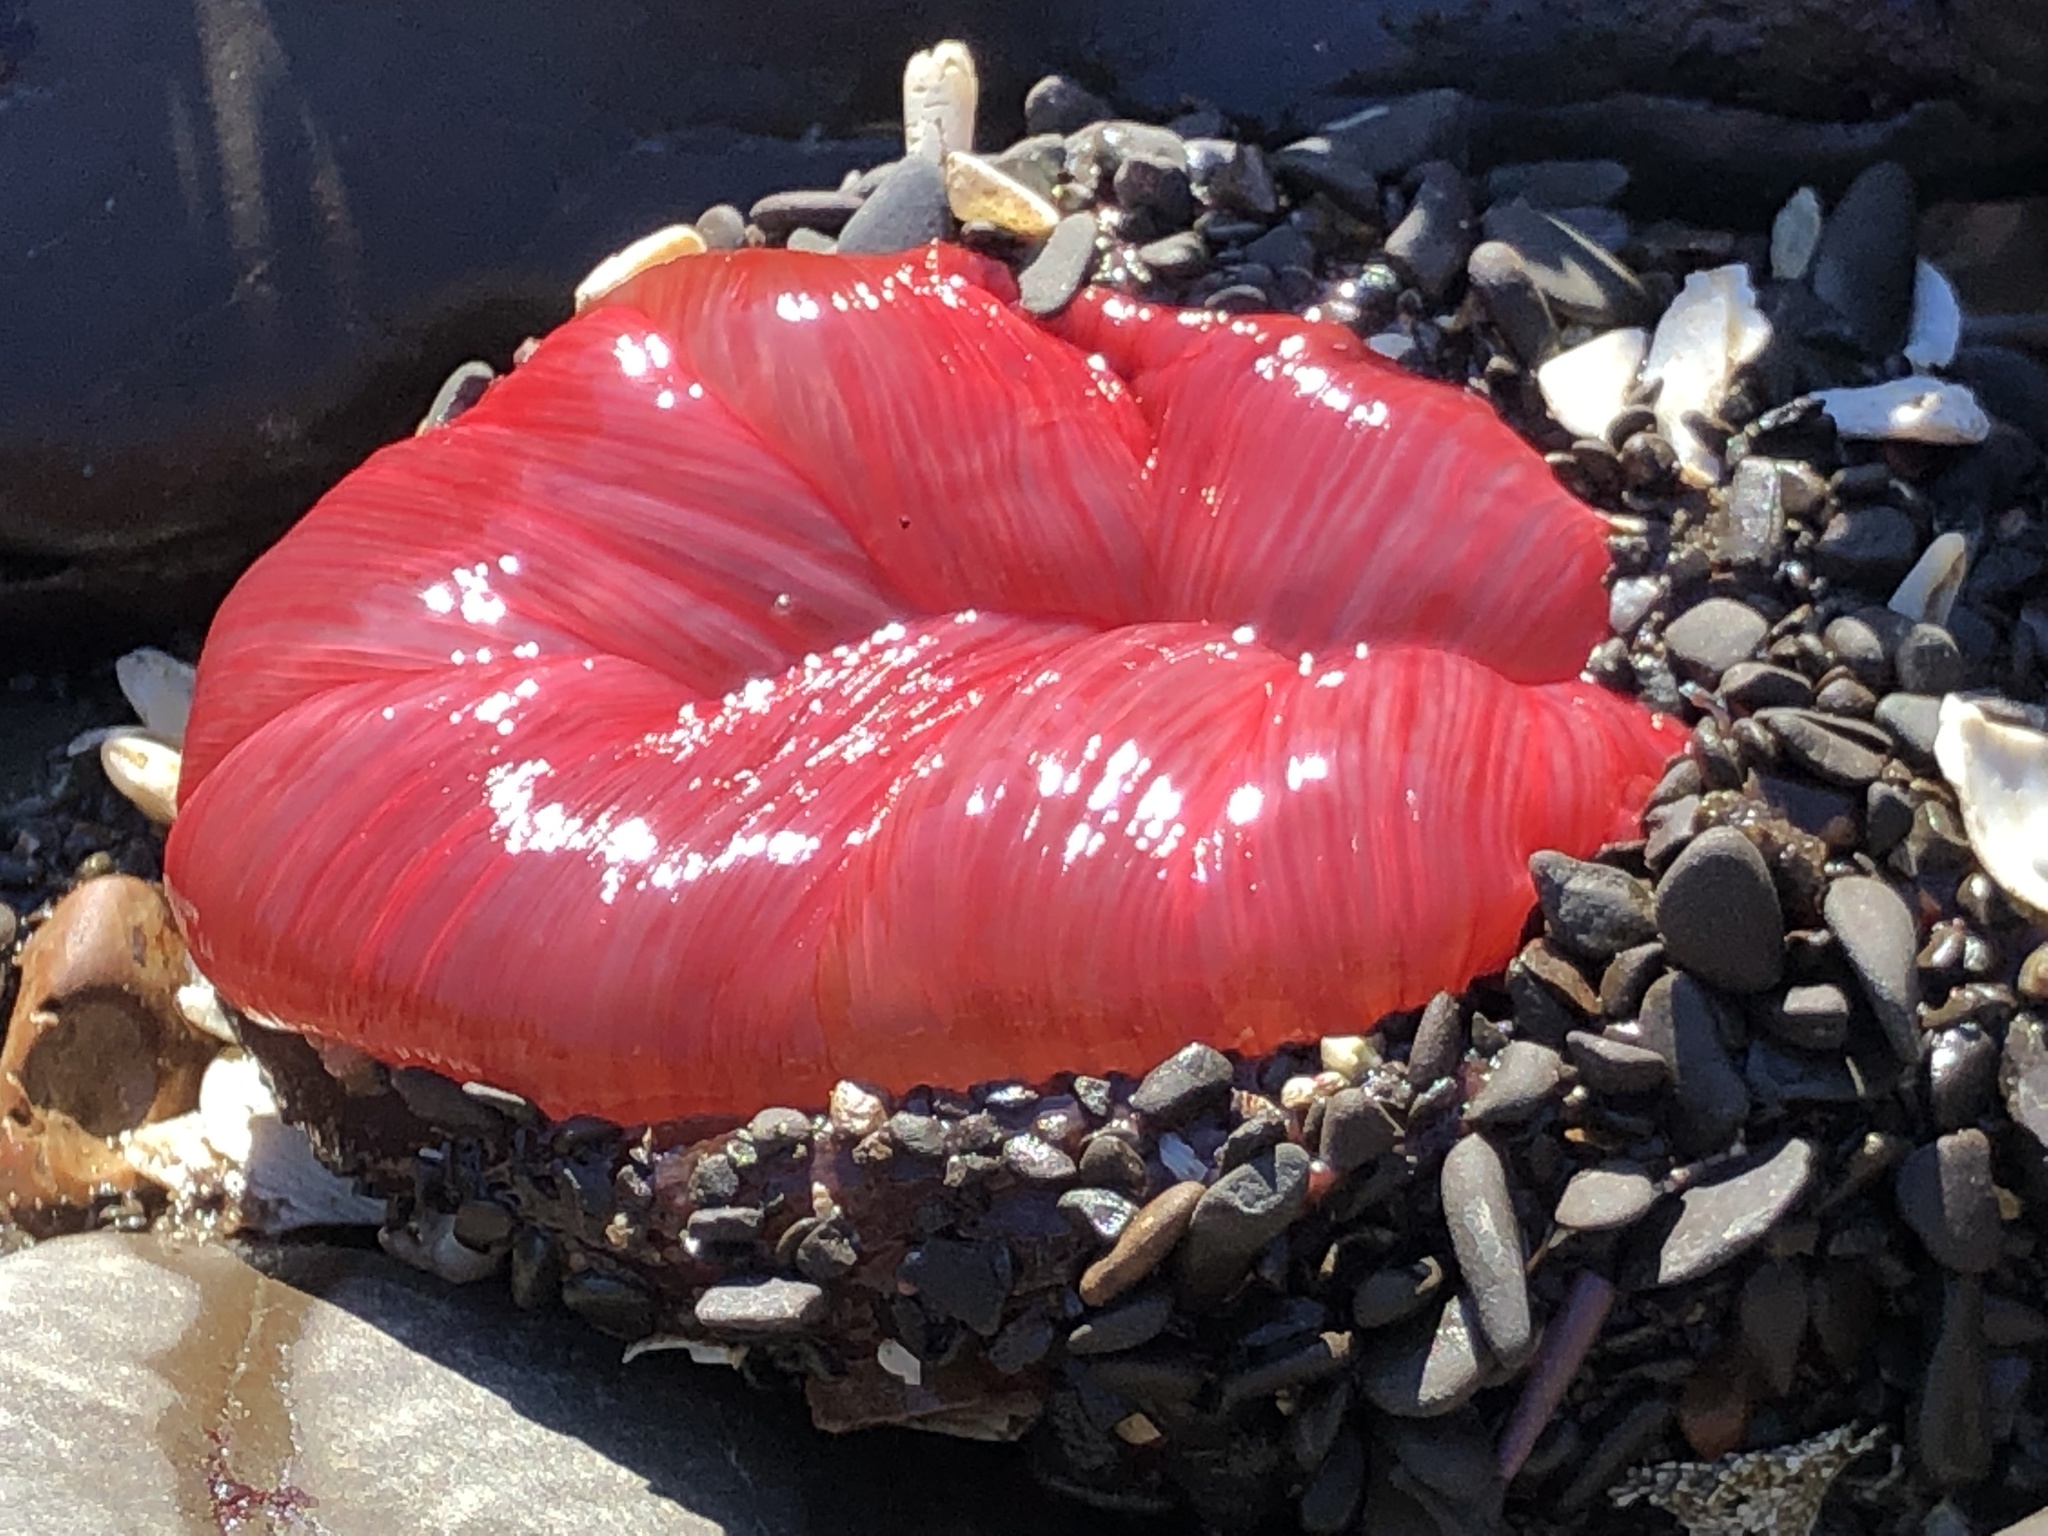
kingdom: Animalia
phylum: Cnidaria
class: Anthozoa
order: Actiniaria
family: Actiniidae
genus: Urticina
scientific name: Urticina clandestina
